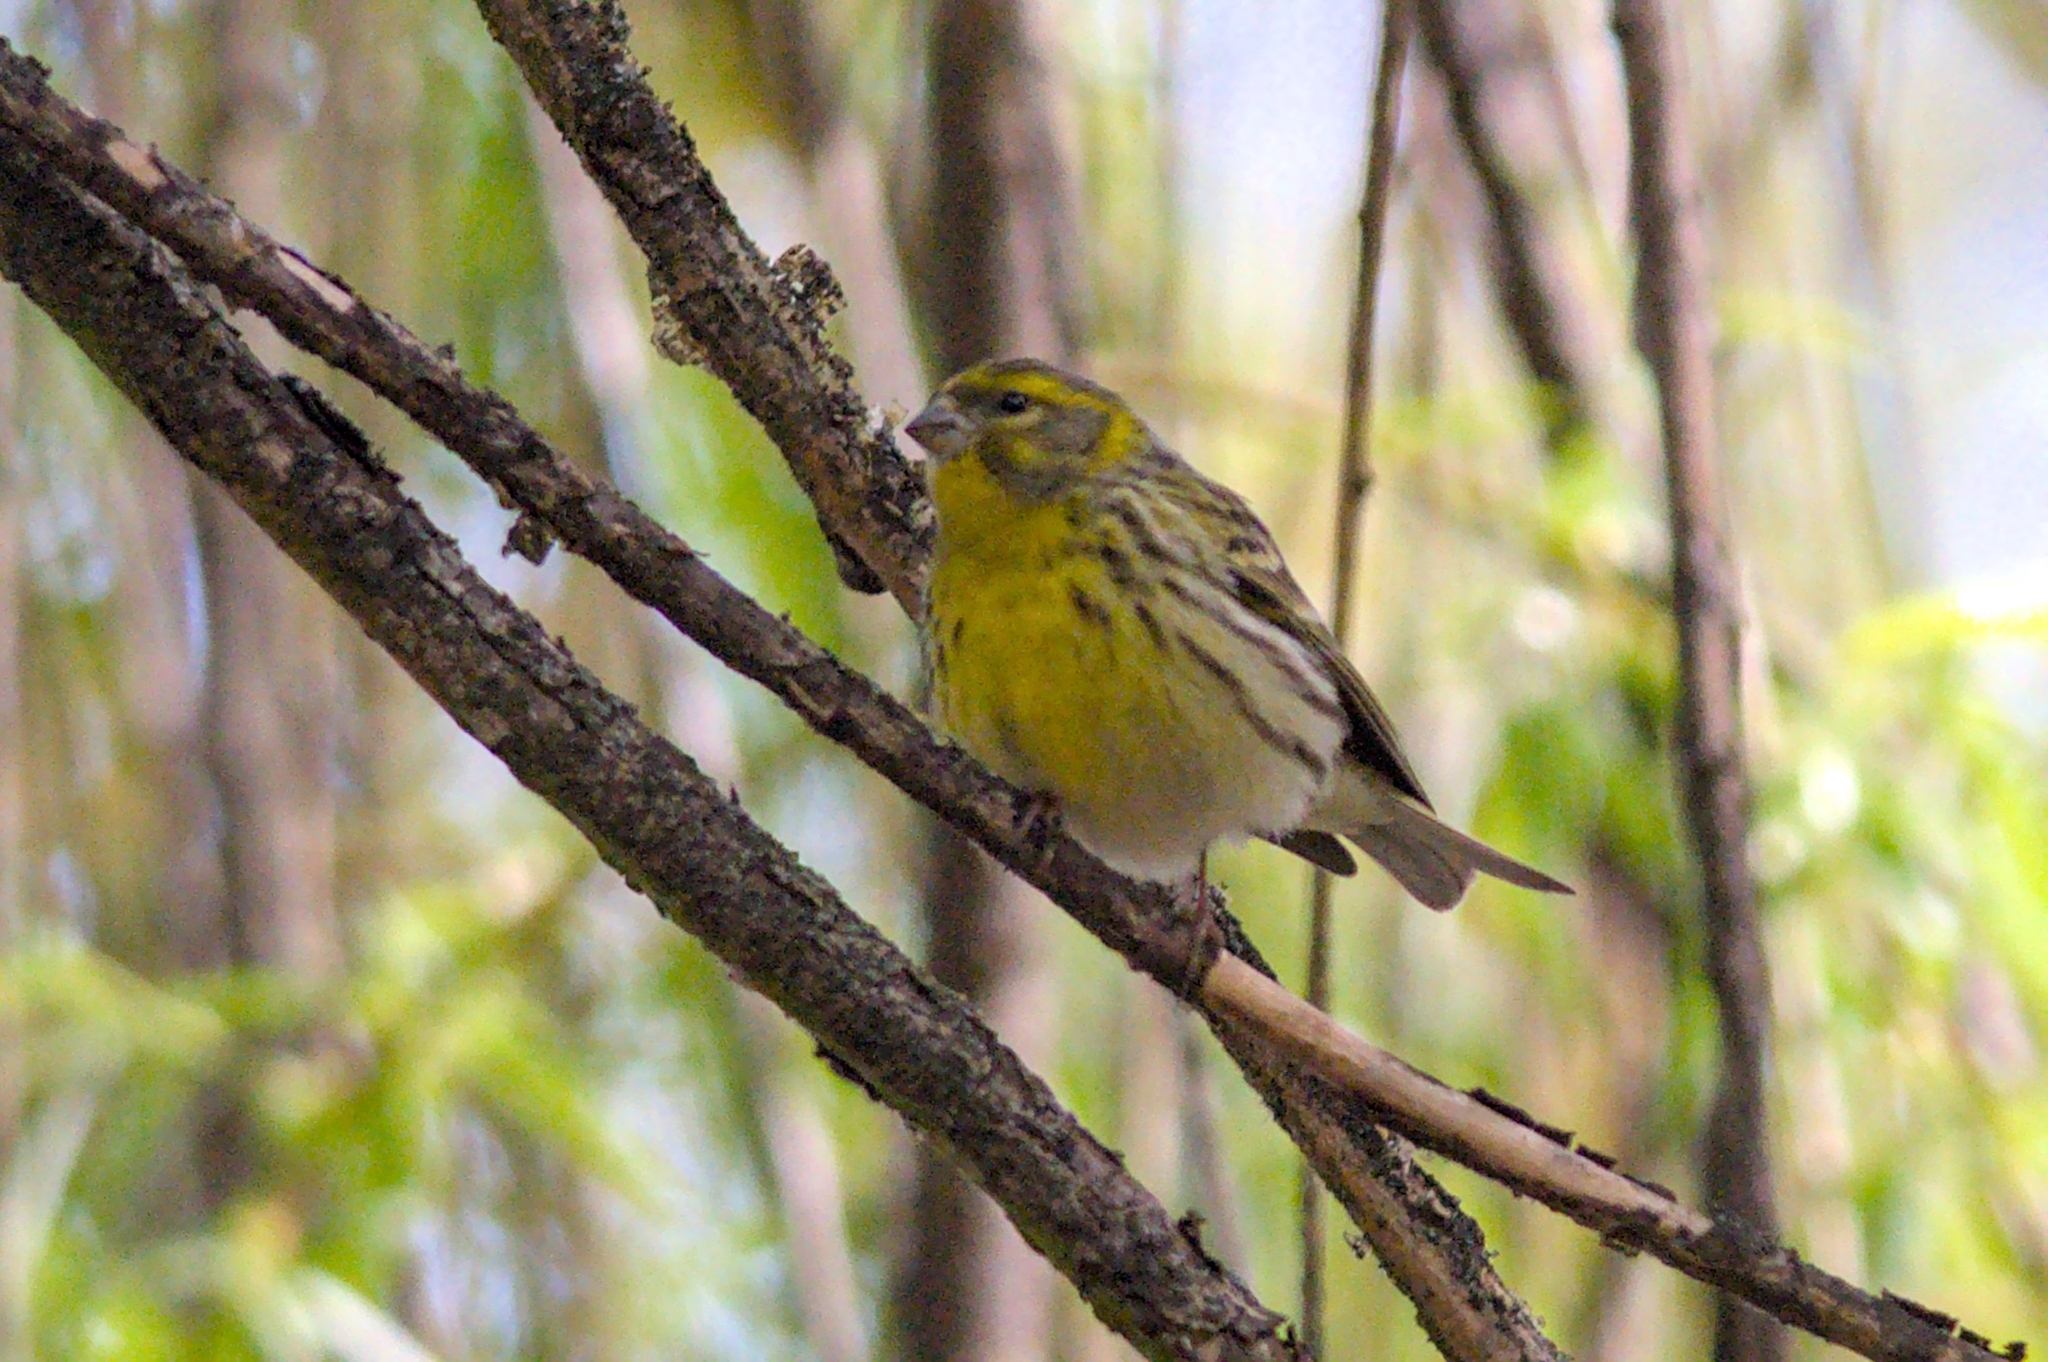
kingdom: Animalia
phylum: Chordata
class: Aves
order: Passeriformes
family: Fringillidae
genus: Serinus
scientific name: Serinus serinus
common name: European serin
